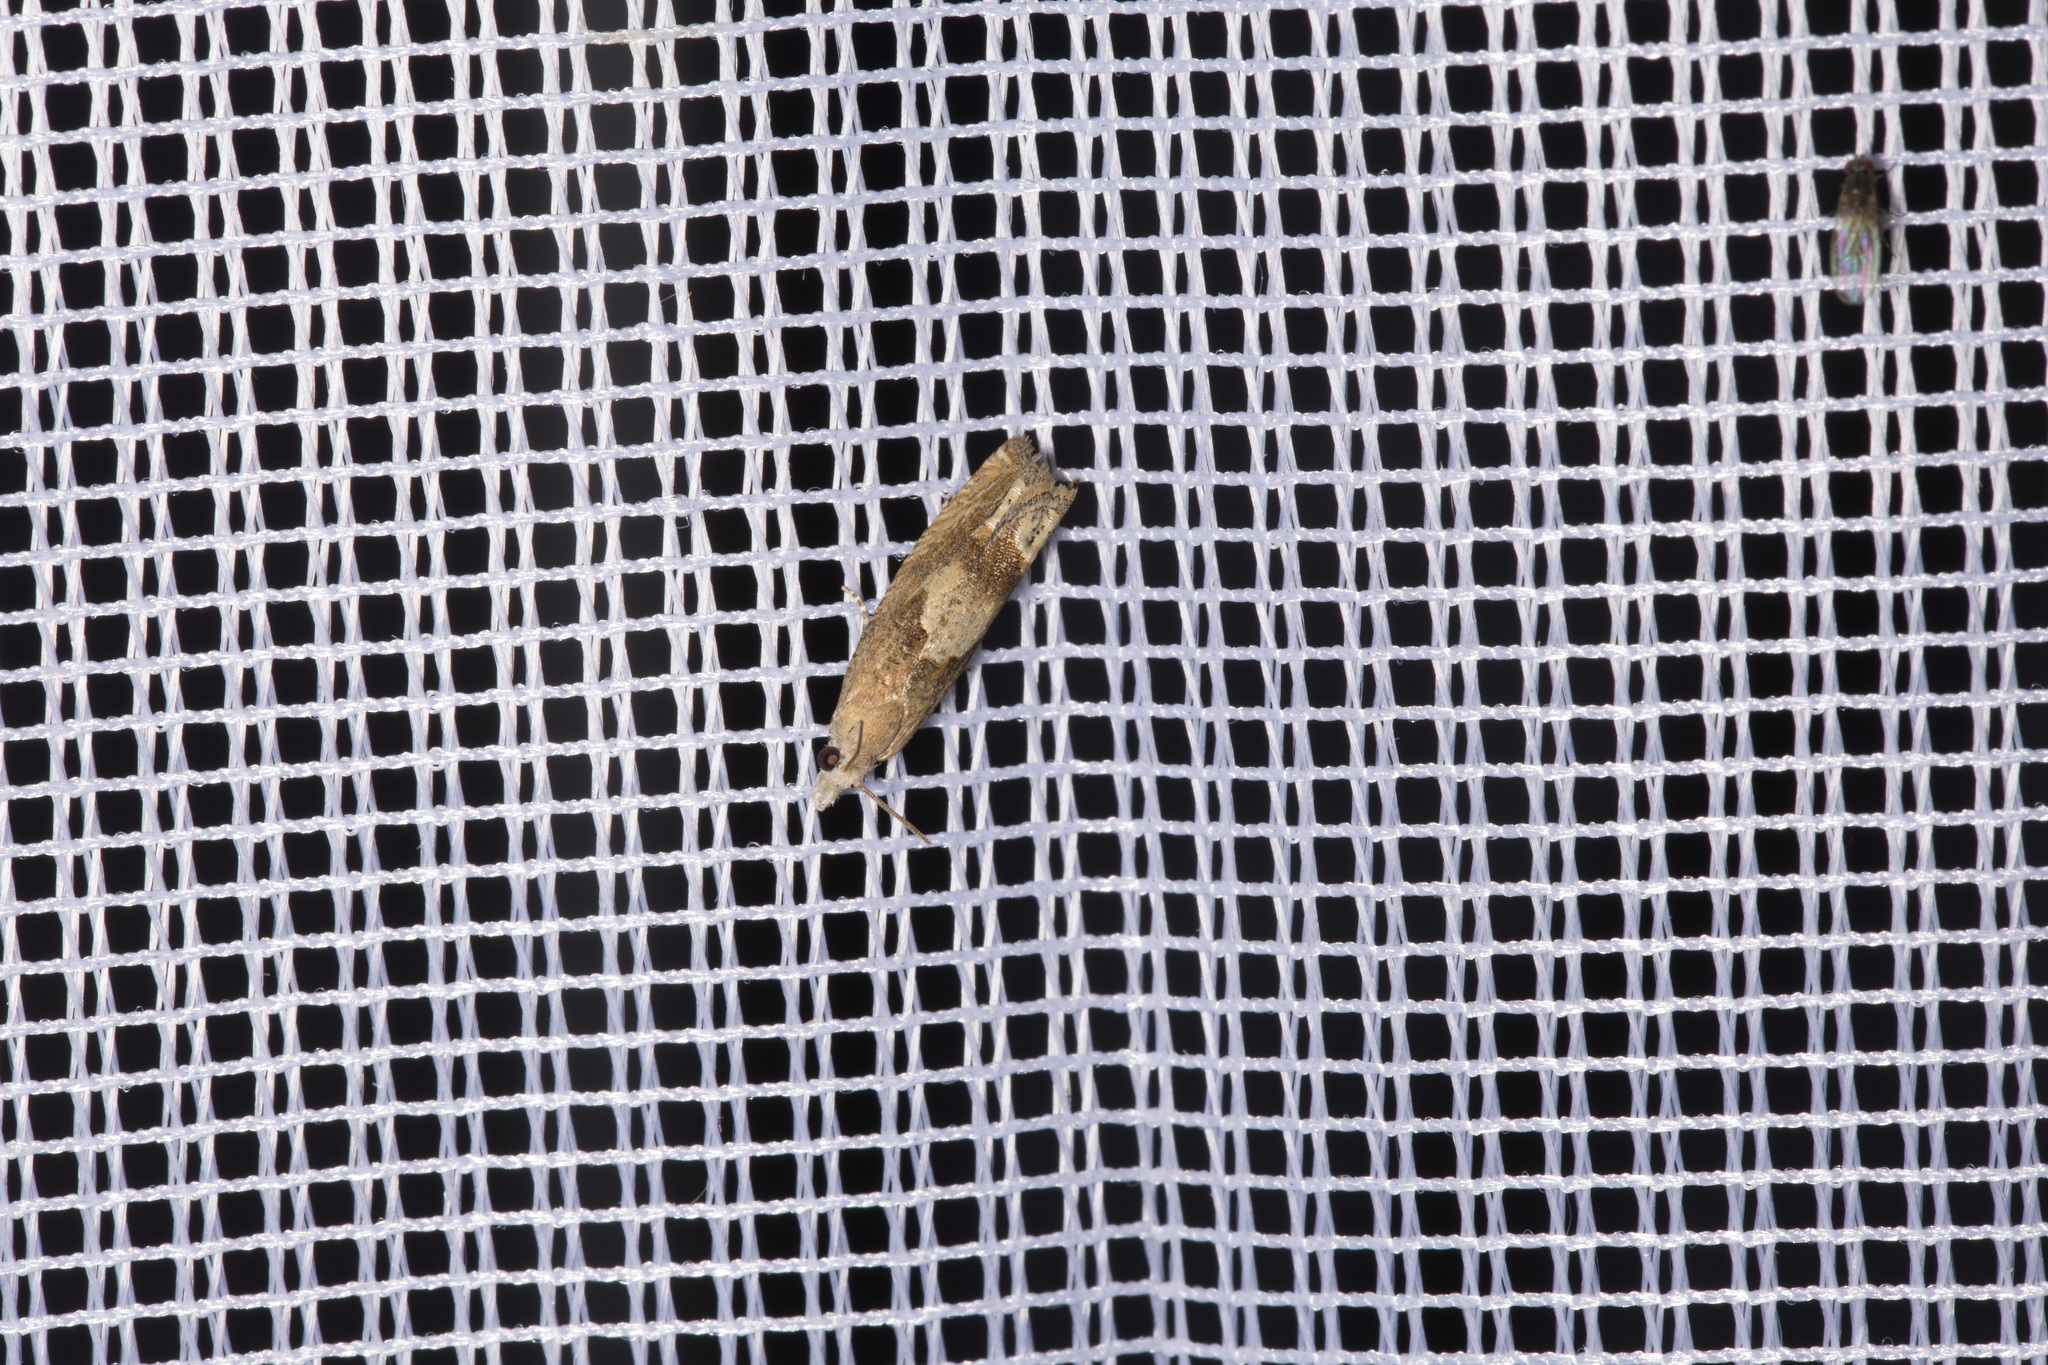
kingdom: Animalia
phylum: Arthropoda
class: Insecta
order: Lepidoptera
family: Tortricidae
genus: Eucosma
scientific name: Eucosma conterminana
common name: Pale lettuce bell
